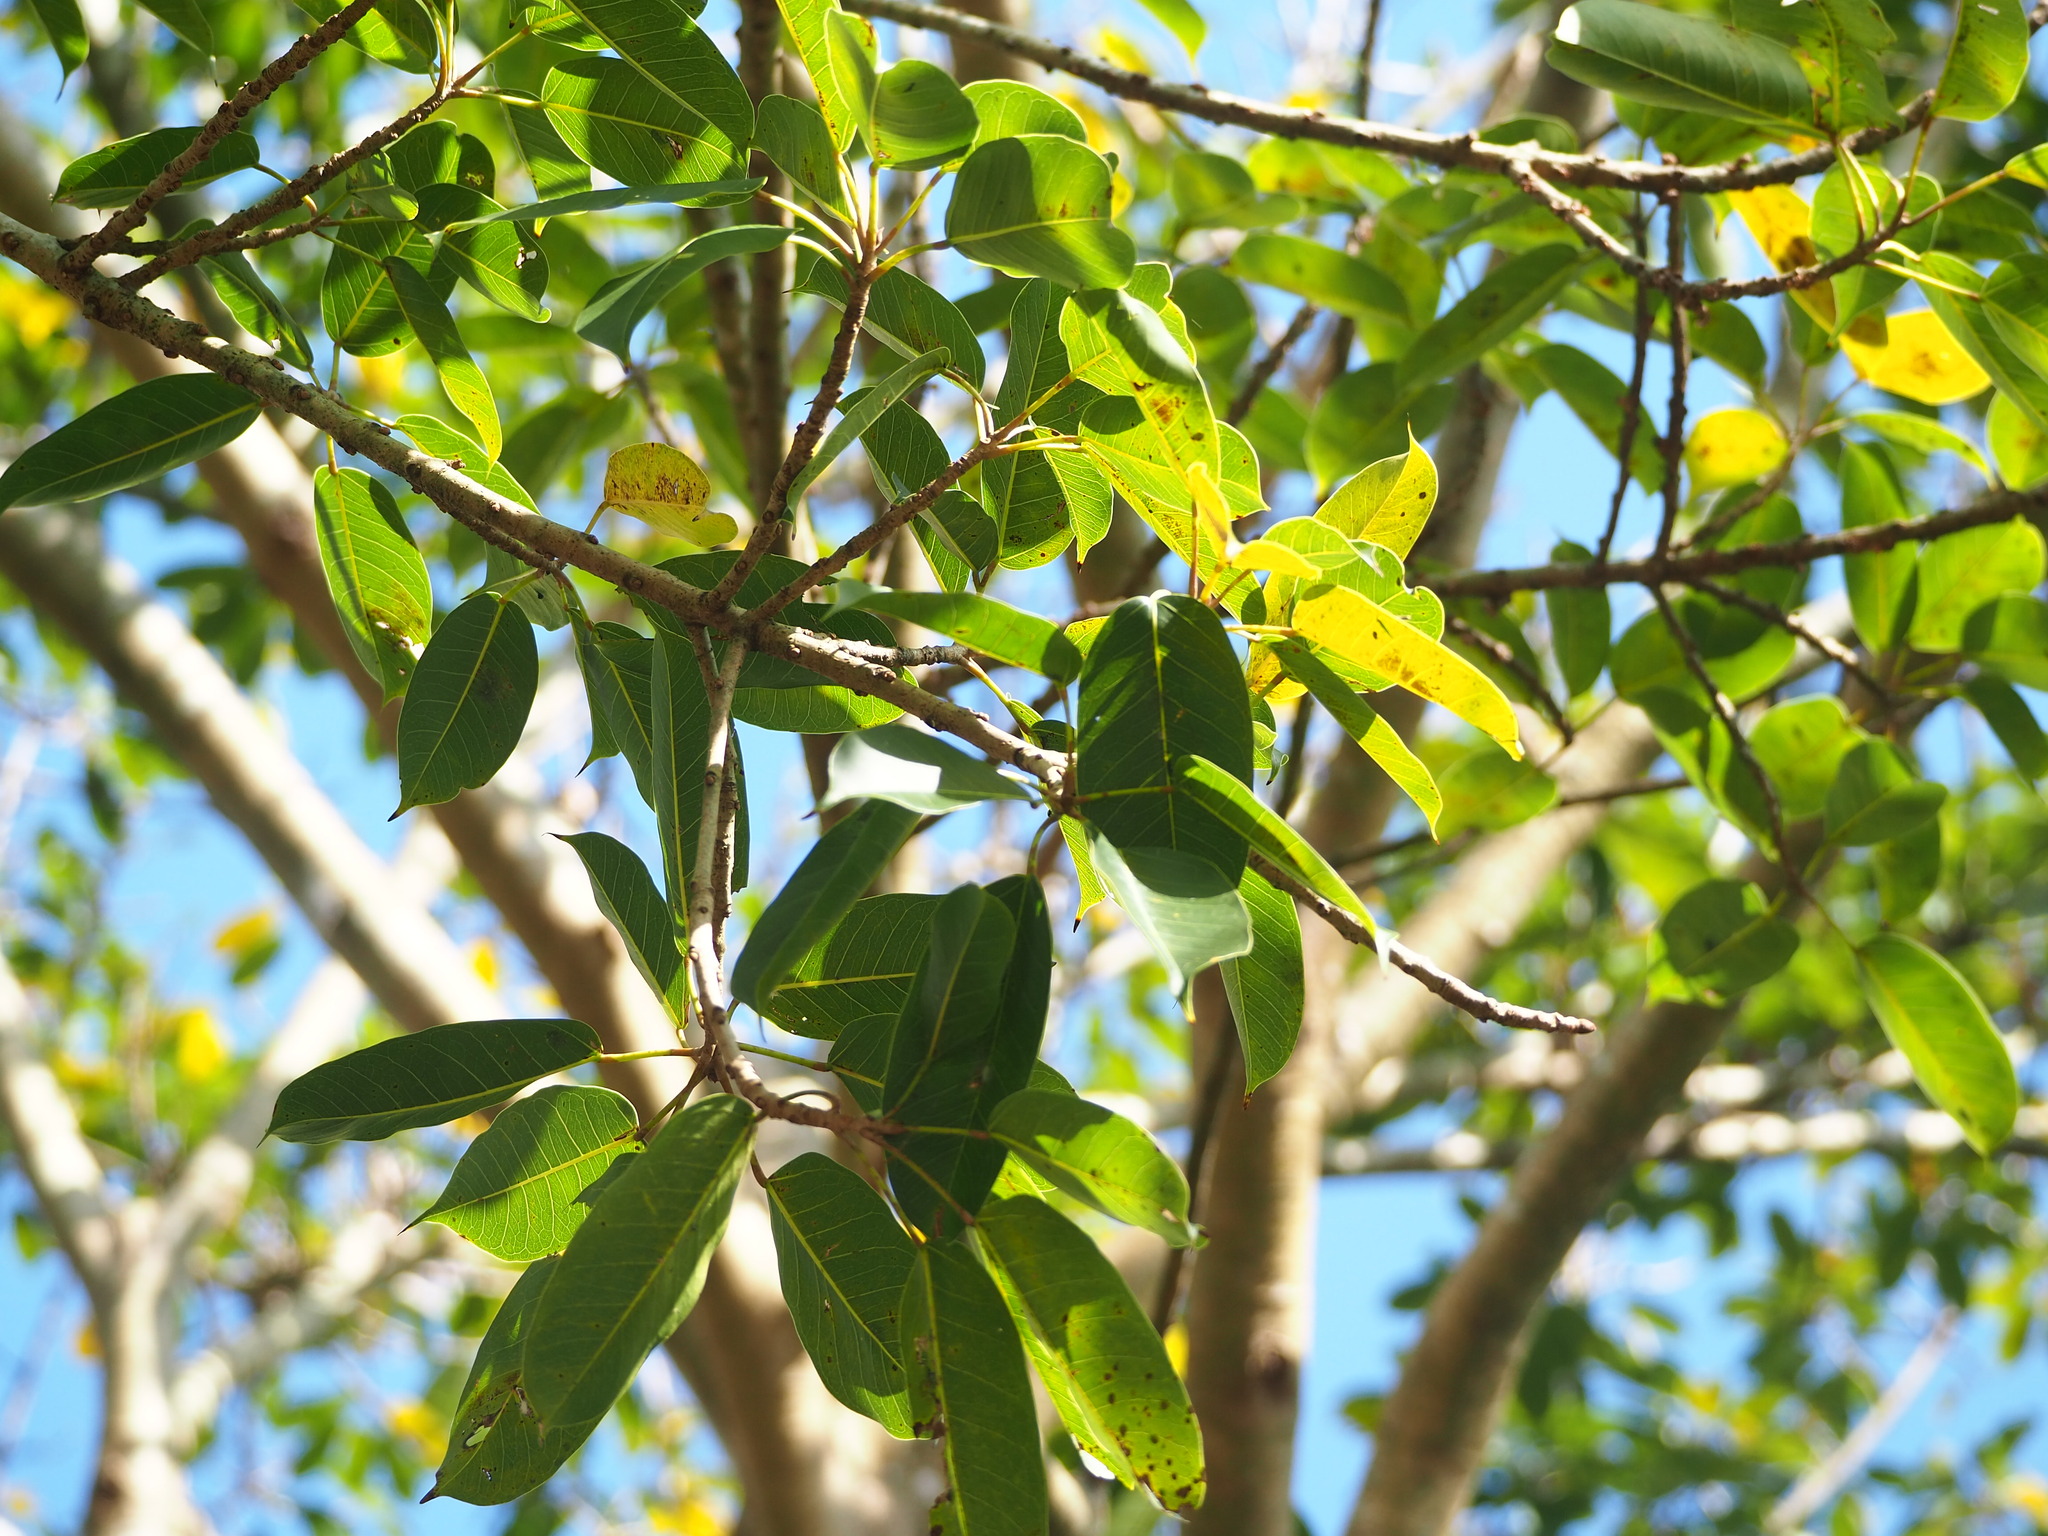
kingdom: Plantae
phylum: Tracheophyta
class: Magnoliopsida
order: Rosales
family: Moraceae
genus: Ficus
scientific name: Ficus caulocarpa
